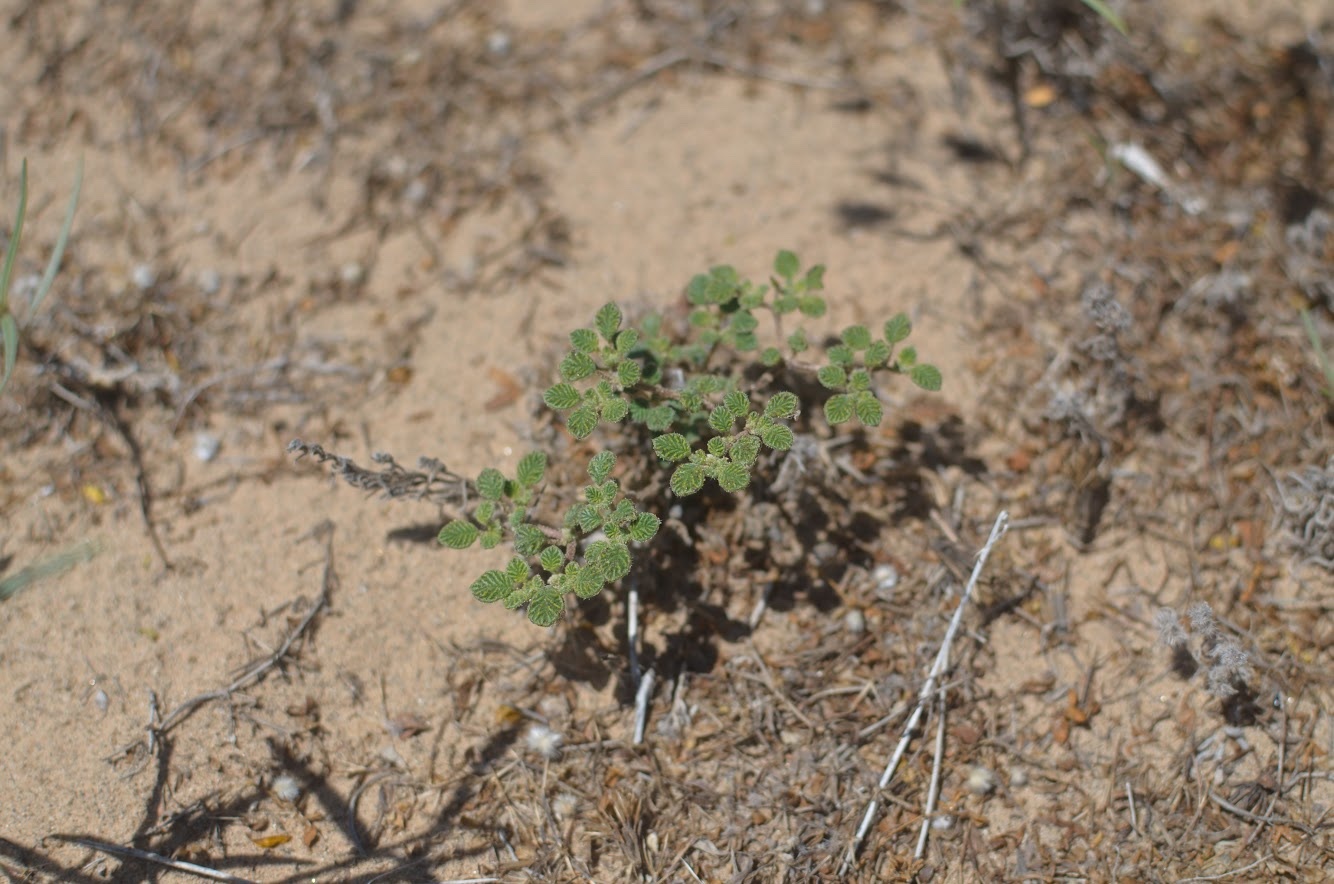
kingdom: Plantae
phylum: Tracheophyta
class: Magnoliopsida
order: Boraginales
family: Ehretiaceae
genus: Tiquilia
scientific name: Tiquilia plicata
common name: Fan-leaf tiquilia
